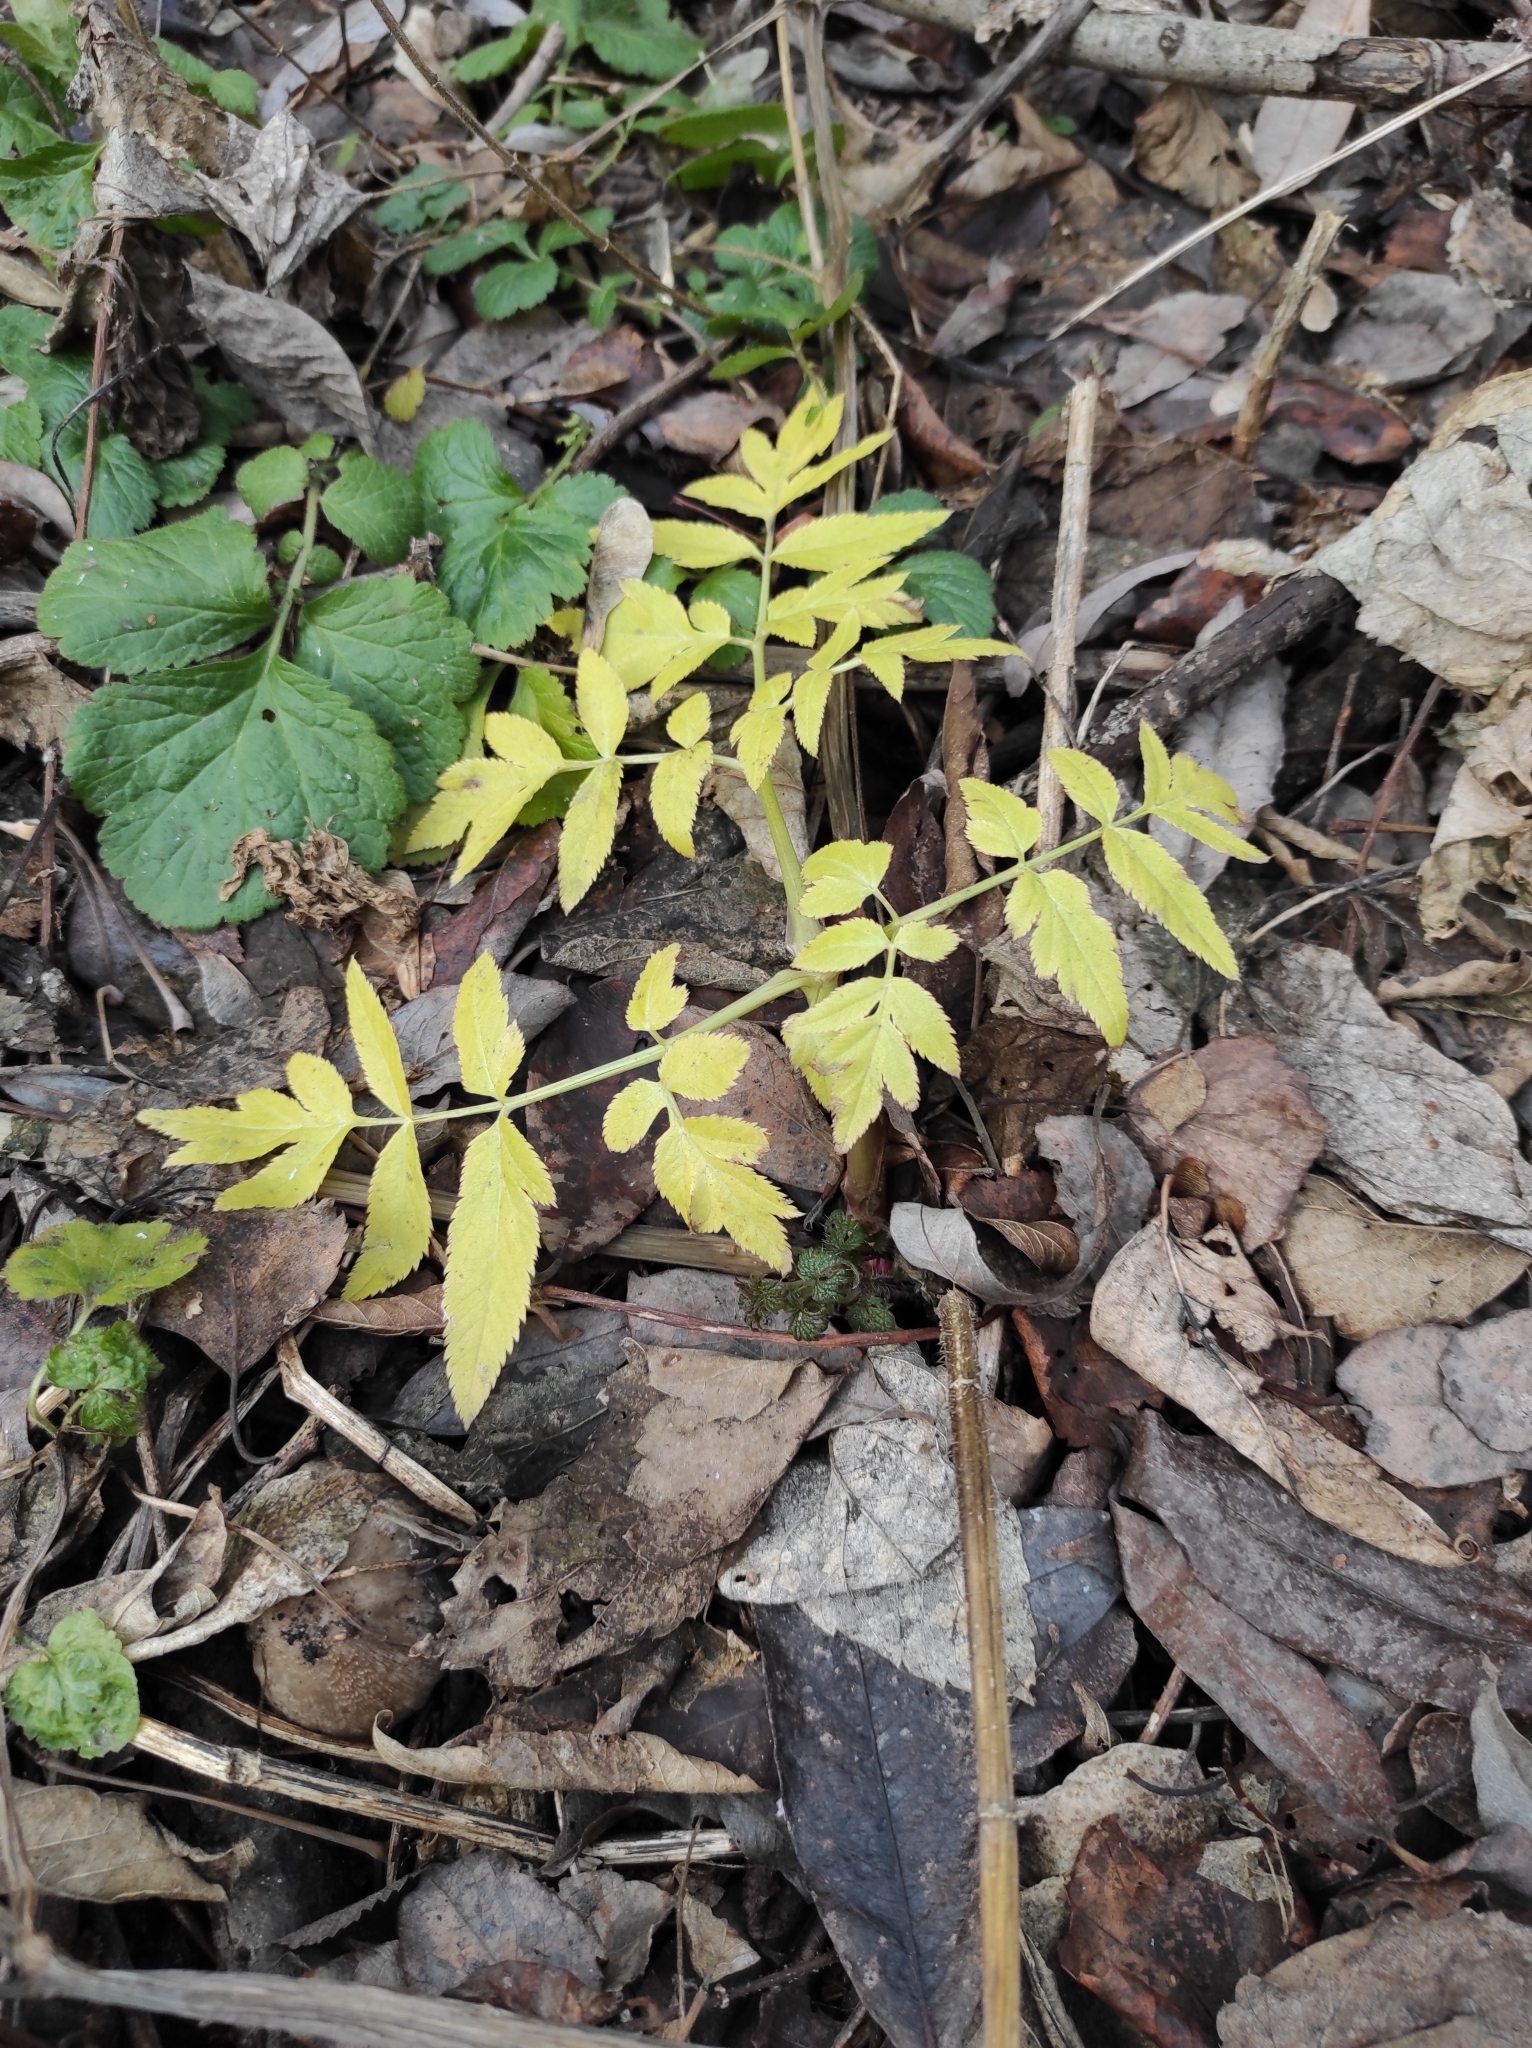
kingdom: Plantae
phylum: Tracheophyta
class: Magnoliopsida
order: Apiales
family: Apiaceae
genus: Angelica
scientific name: Angelica sylvestris
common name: Wild angelica
